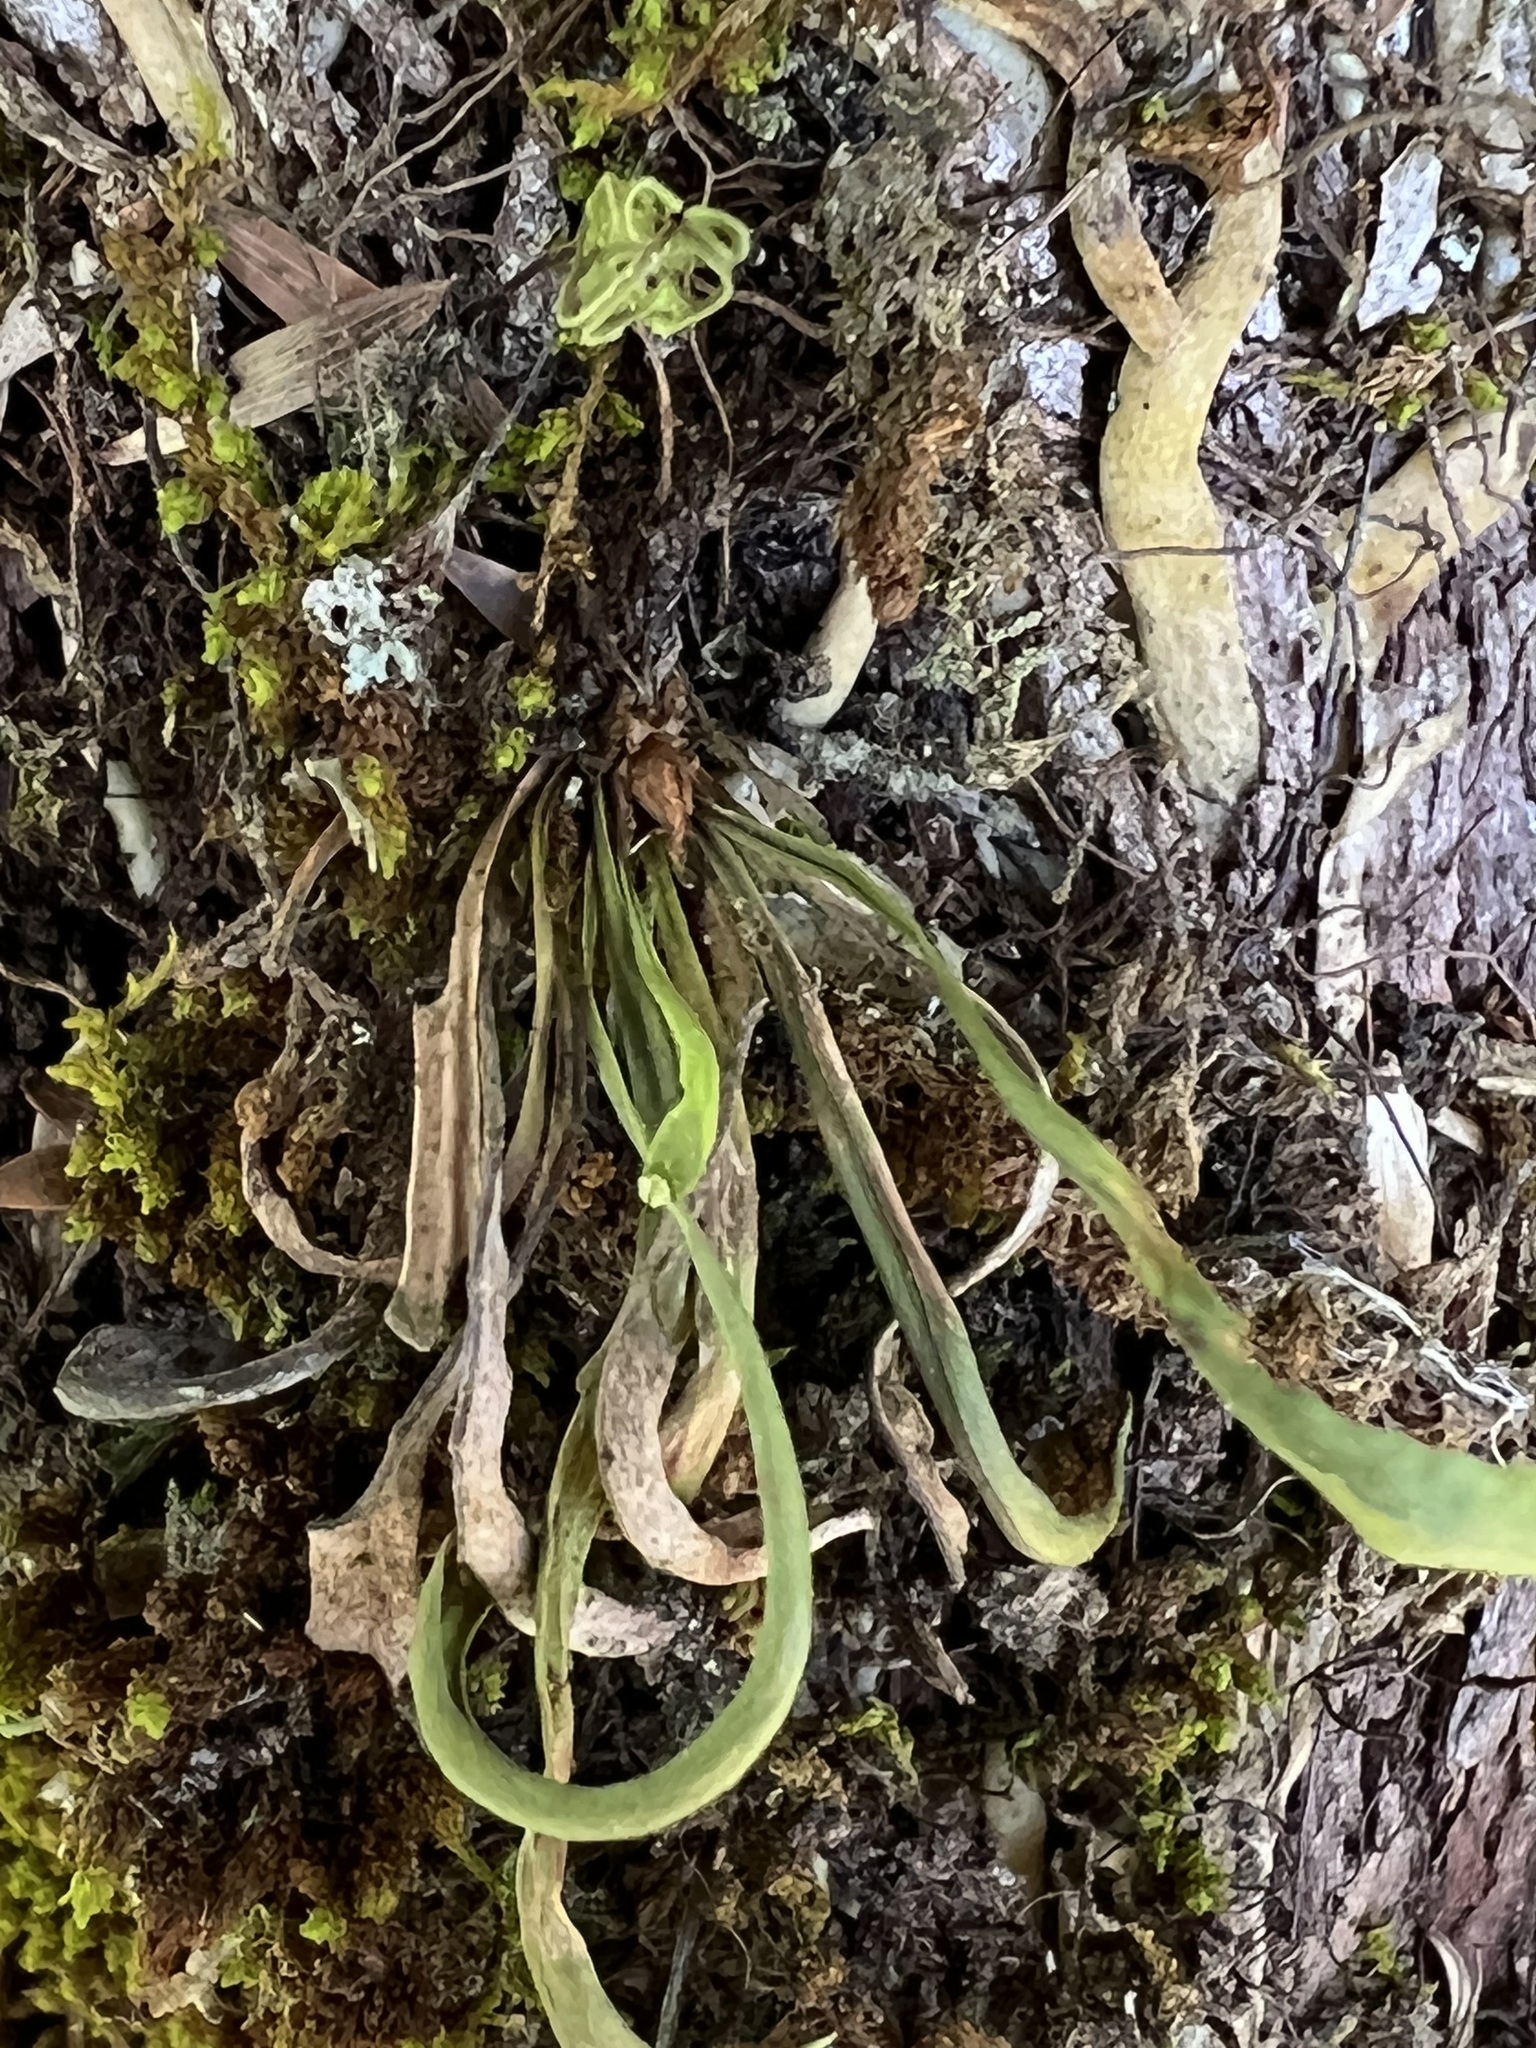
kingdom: Plantae
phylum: Tracheophyta
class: Polypodiopsida
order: Polypodiales
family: Polypodiaceae
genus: Notogrammitis
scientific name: Notogrammitis angustifolia
